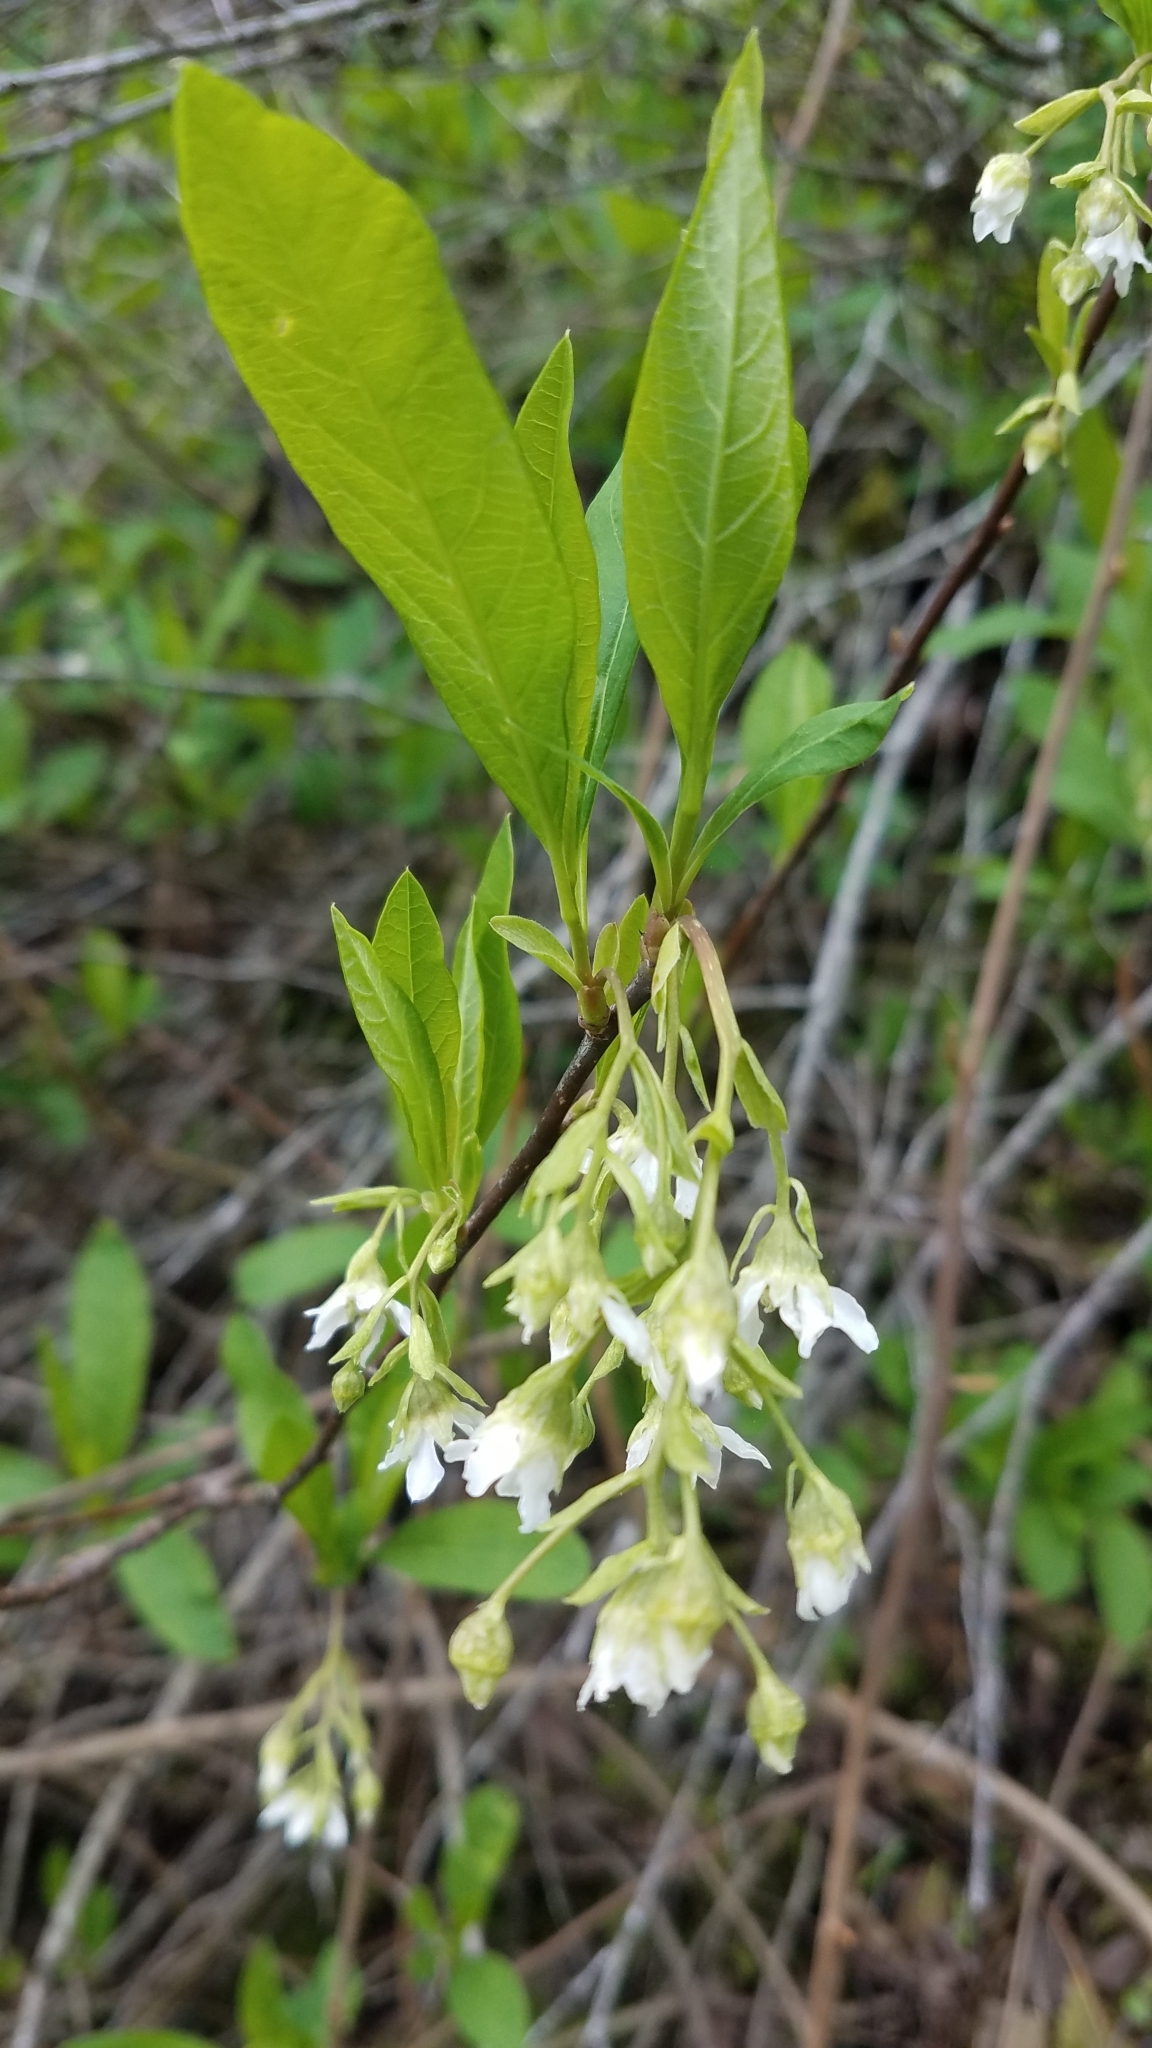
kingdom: Plantae
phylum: Tracheophyta
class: Magnoliopsida
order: Rosales
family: Rosaceae
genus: Oemleria
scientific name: Oemleria cerasiformis
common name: Osoberry
